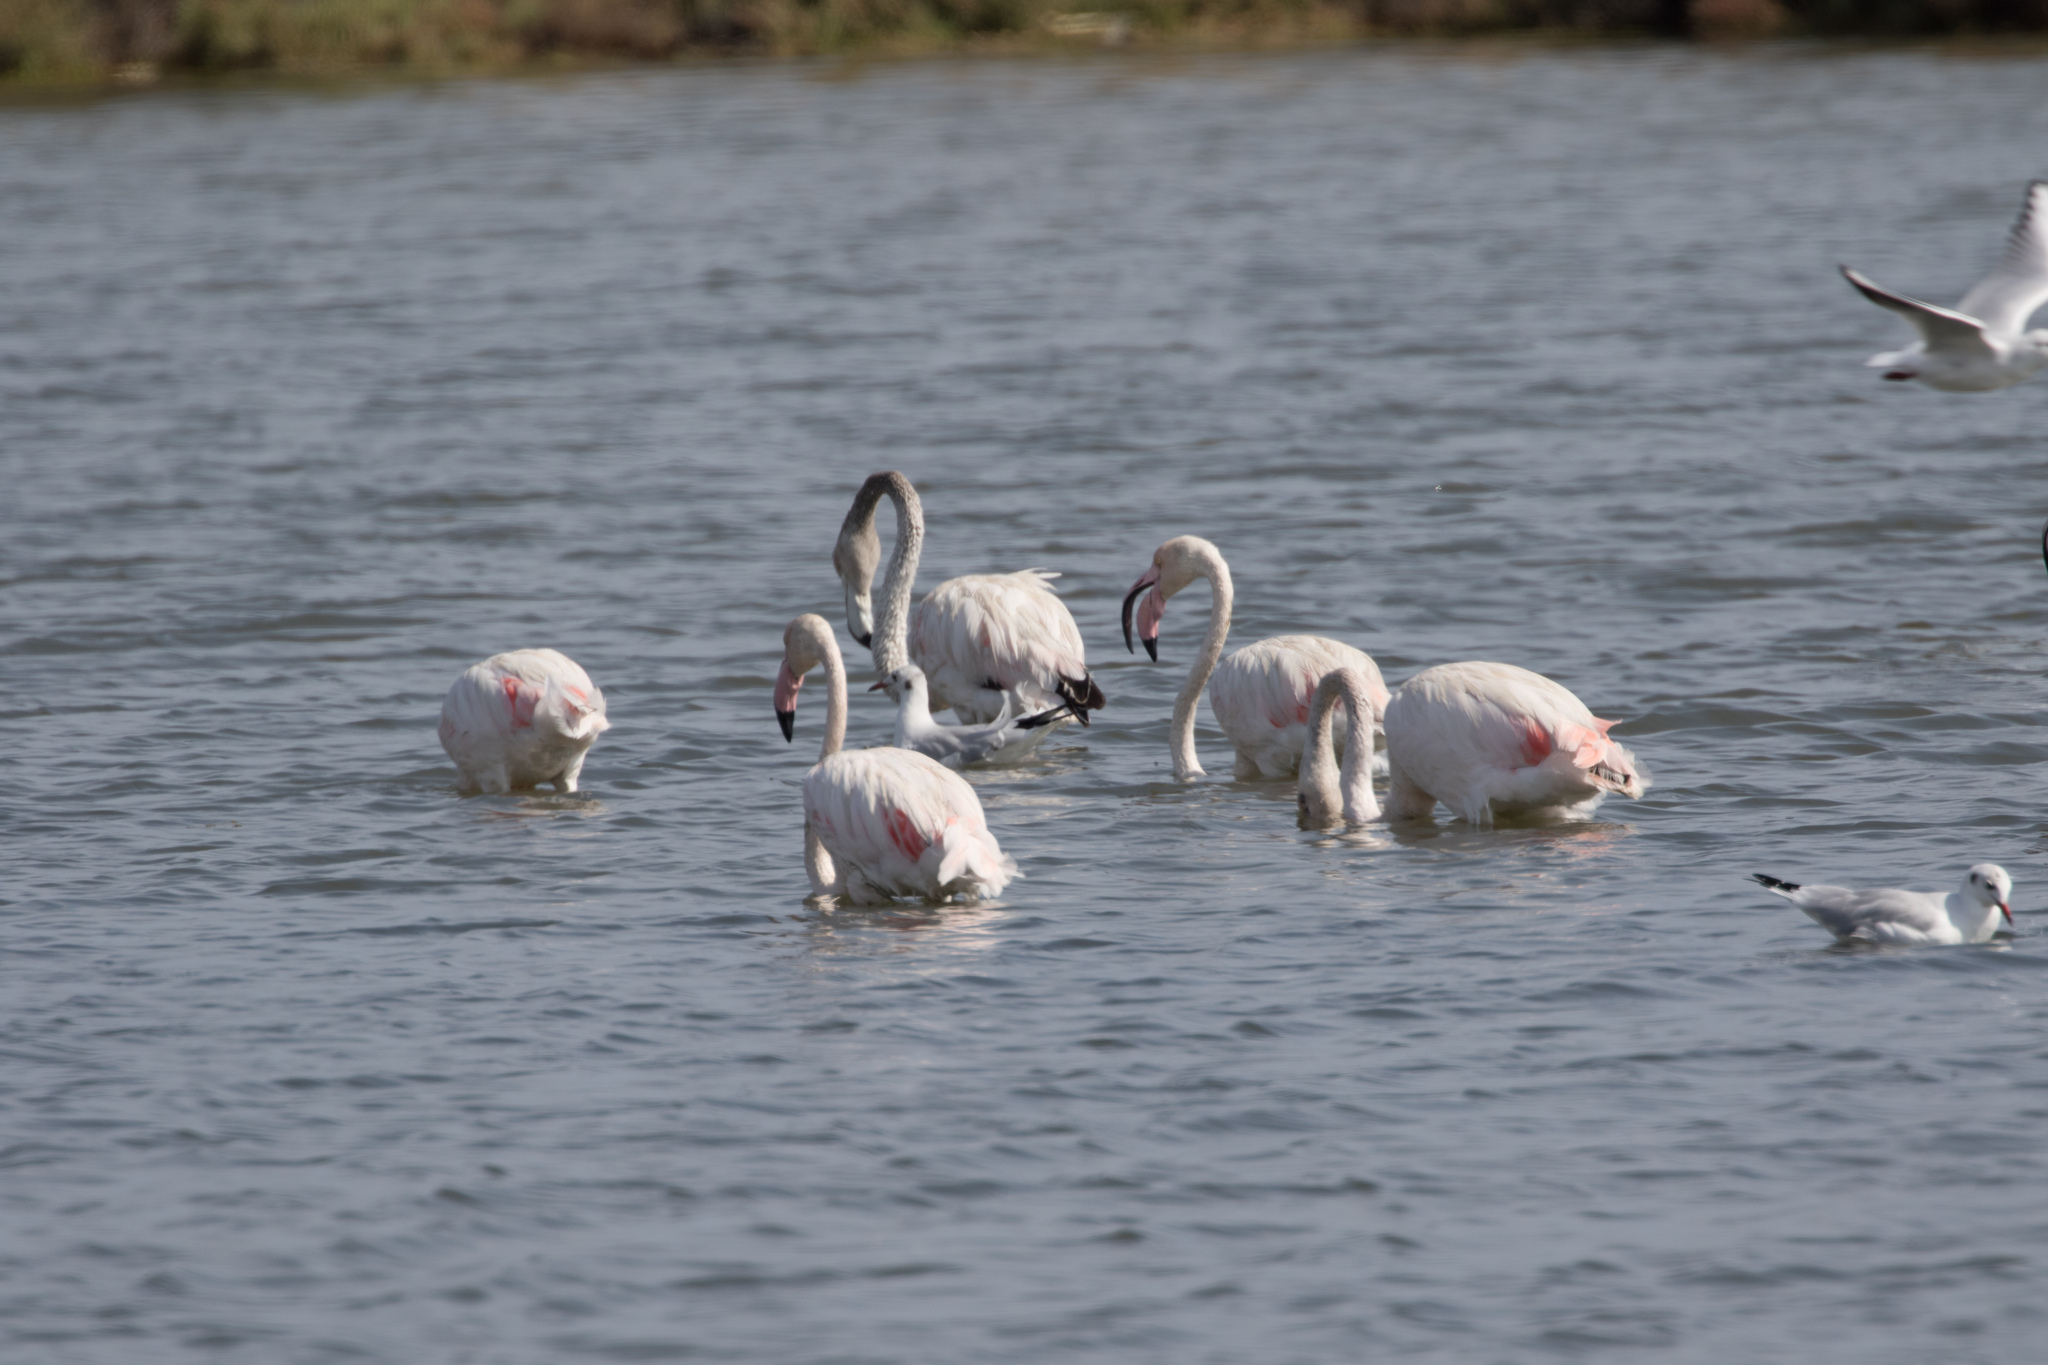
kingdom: Animalia
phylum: Chordata
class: Aves
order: Phoenicopteriformes
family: Phoenicopteridae
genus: Phoenicopterus
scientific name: Phoenicopterus roseus
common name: Greater flamingo
